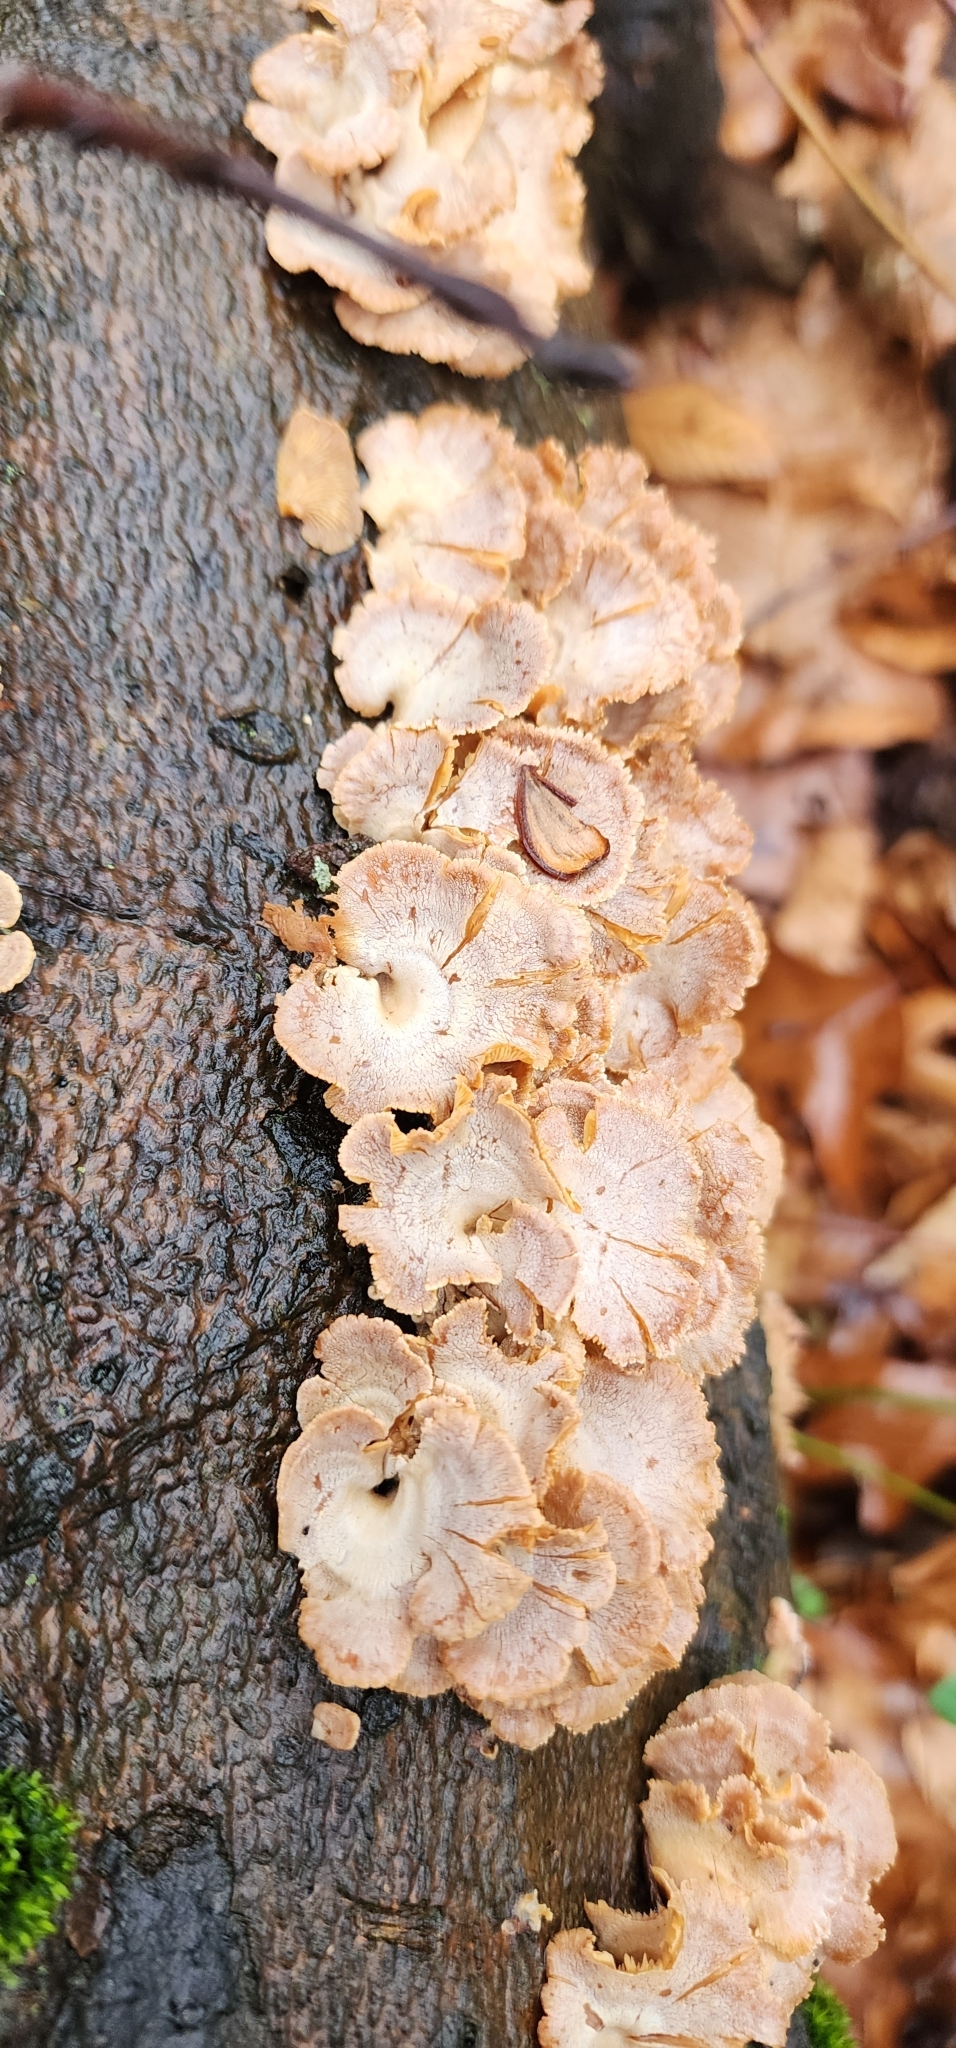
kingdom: Fungi
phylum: Basidiomycota
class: Agaricomycetes
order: Agaricales
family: Mycenaceae
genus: Panellus
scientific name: Panellus stipticus
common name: Bitter oysterling
